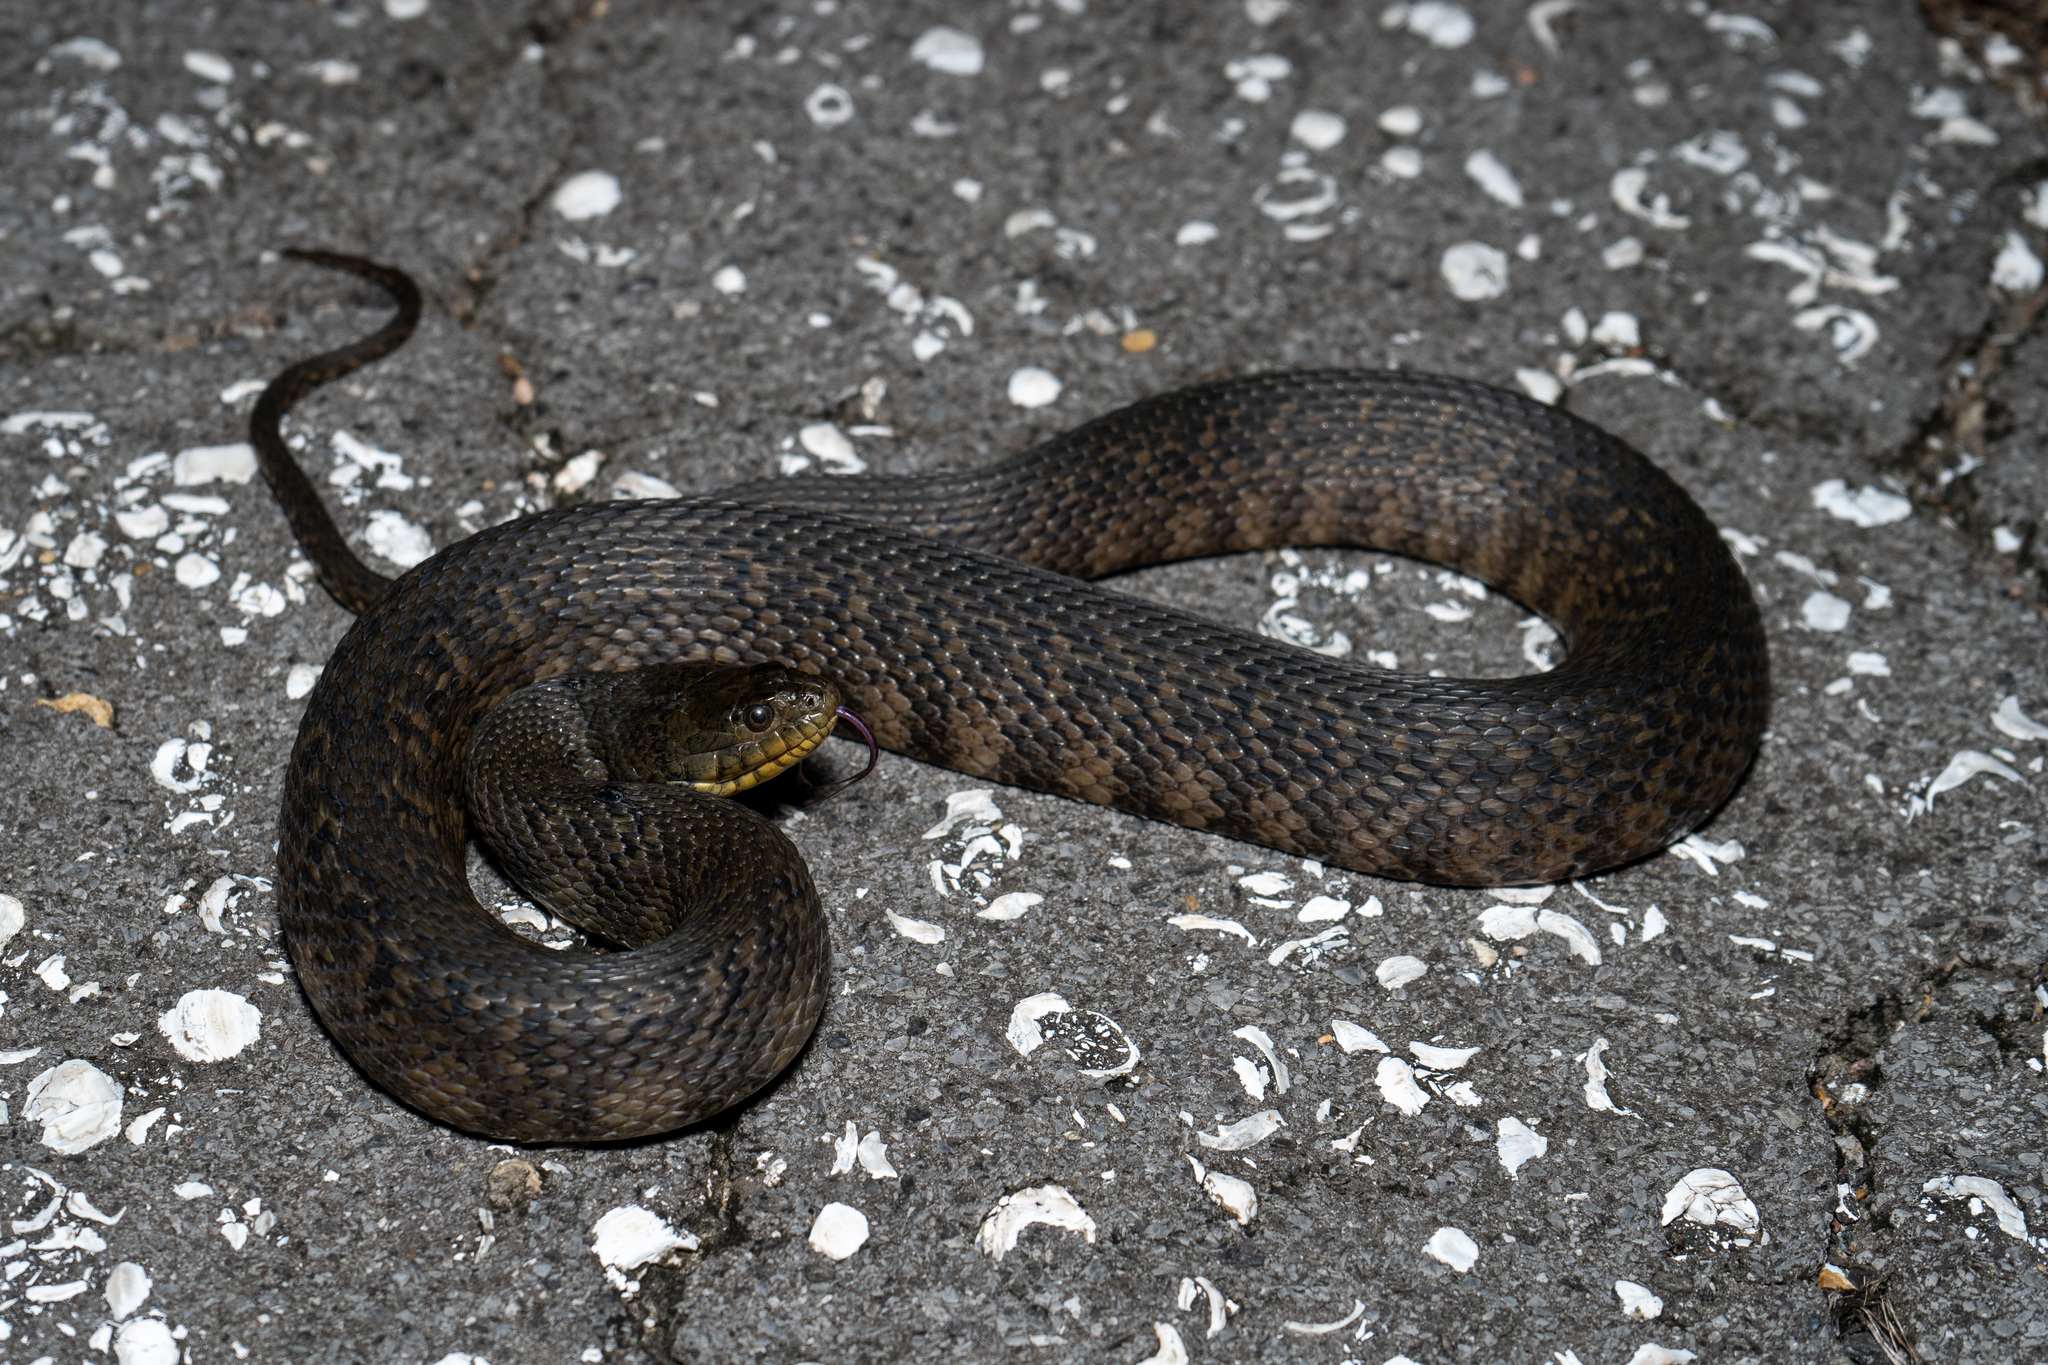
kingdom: Animalia
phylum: Chordata
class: Squamata
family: Colubridae
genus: Nerodia
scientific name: Nerodia cyclopion
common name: Mississippi green water snake
